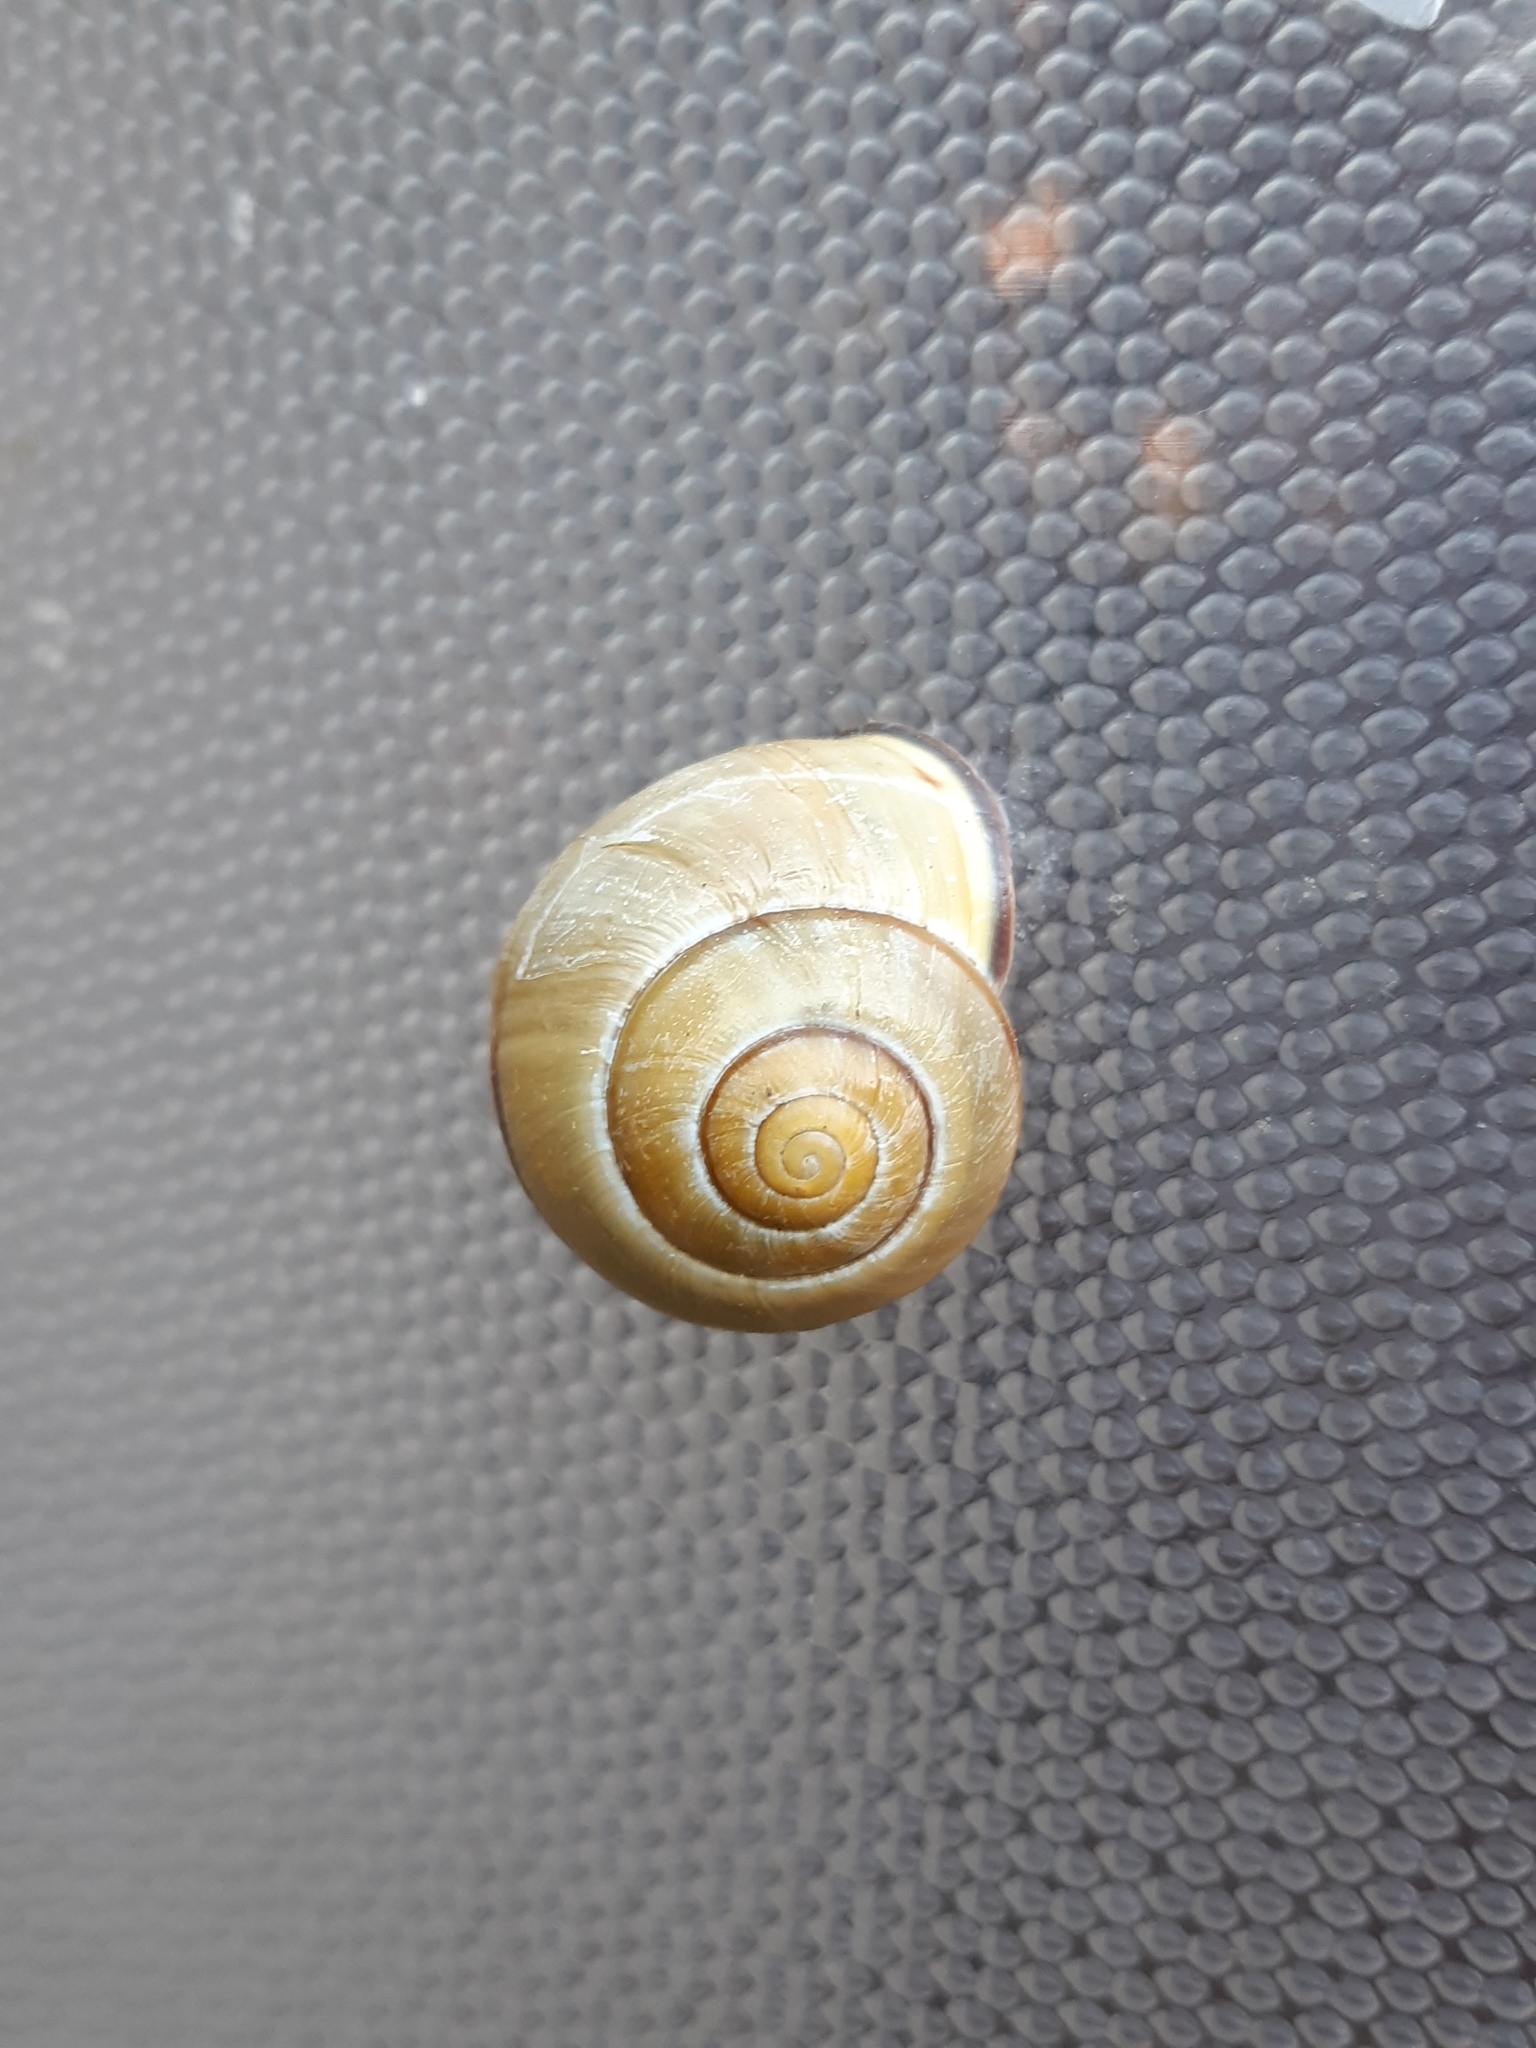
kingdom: Animalia
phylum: Mollusca
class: Gastropoda
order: Stylommatophora
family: Helicidae
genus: Cepaea
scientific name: Cepaea nemoralis
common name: Grovesnail
